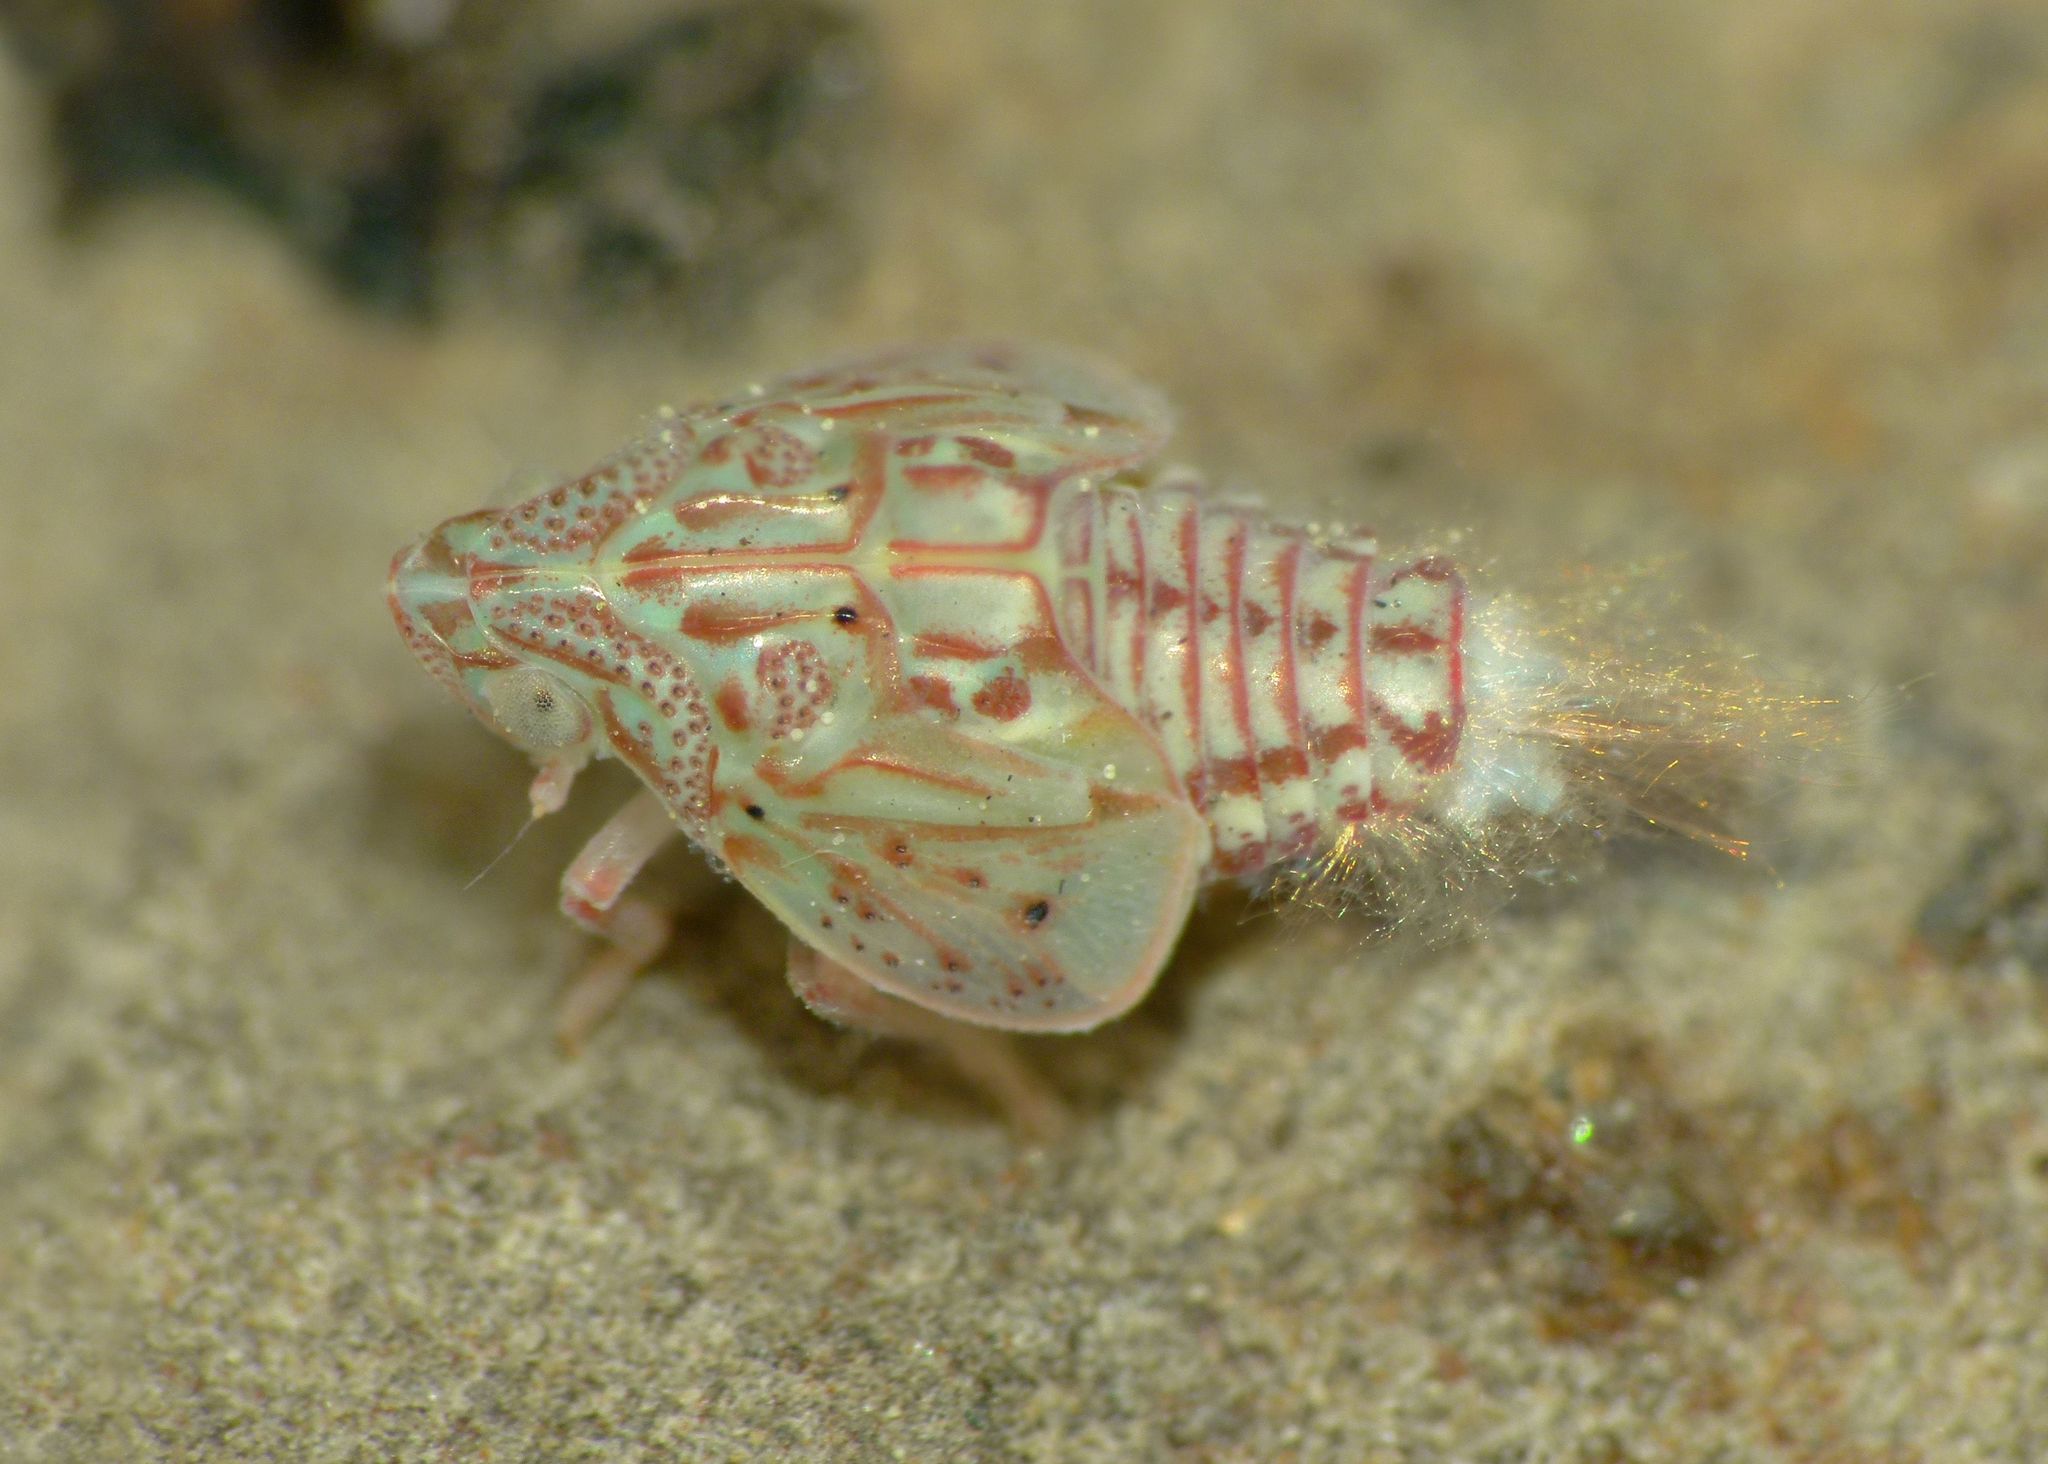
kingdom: Animalia
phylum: Arthropoda
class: Insecta
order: Hemiptera
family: Flatidae
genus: Siphanta
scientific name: Siphanta acuta
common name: Torpedo bug
